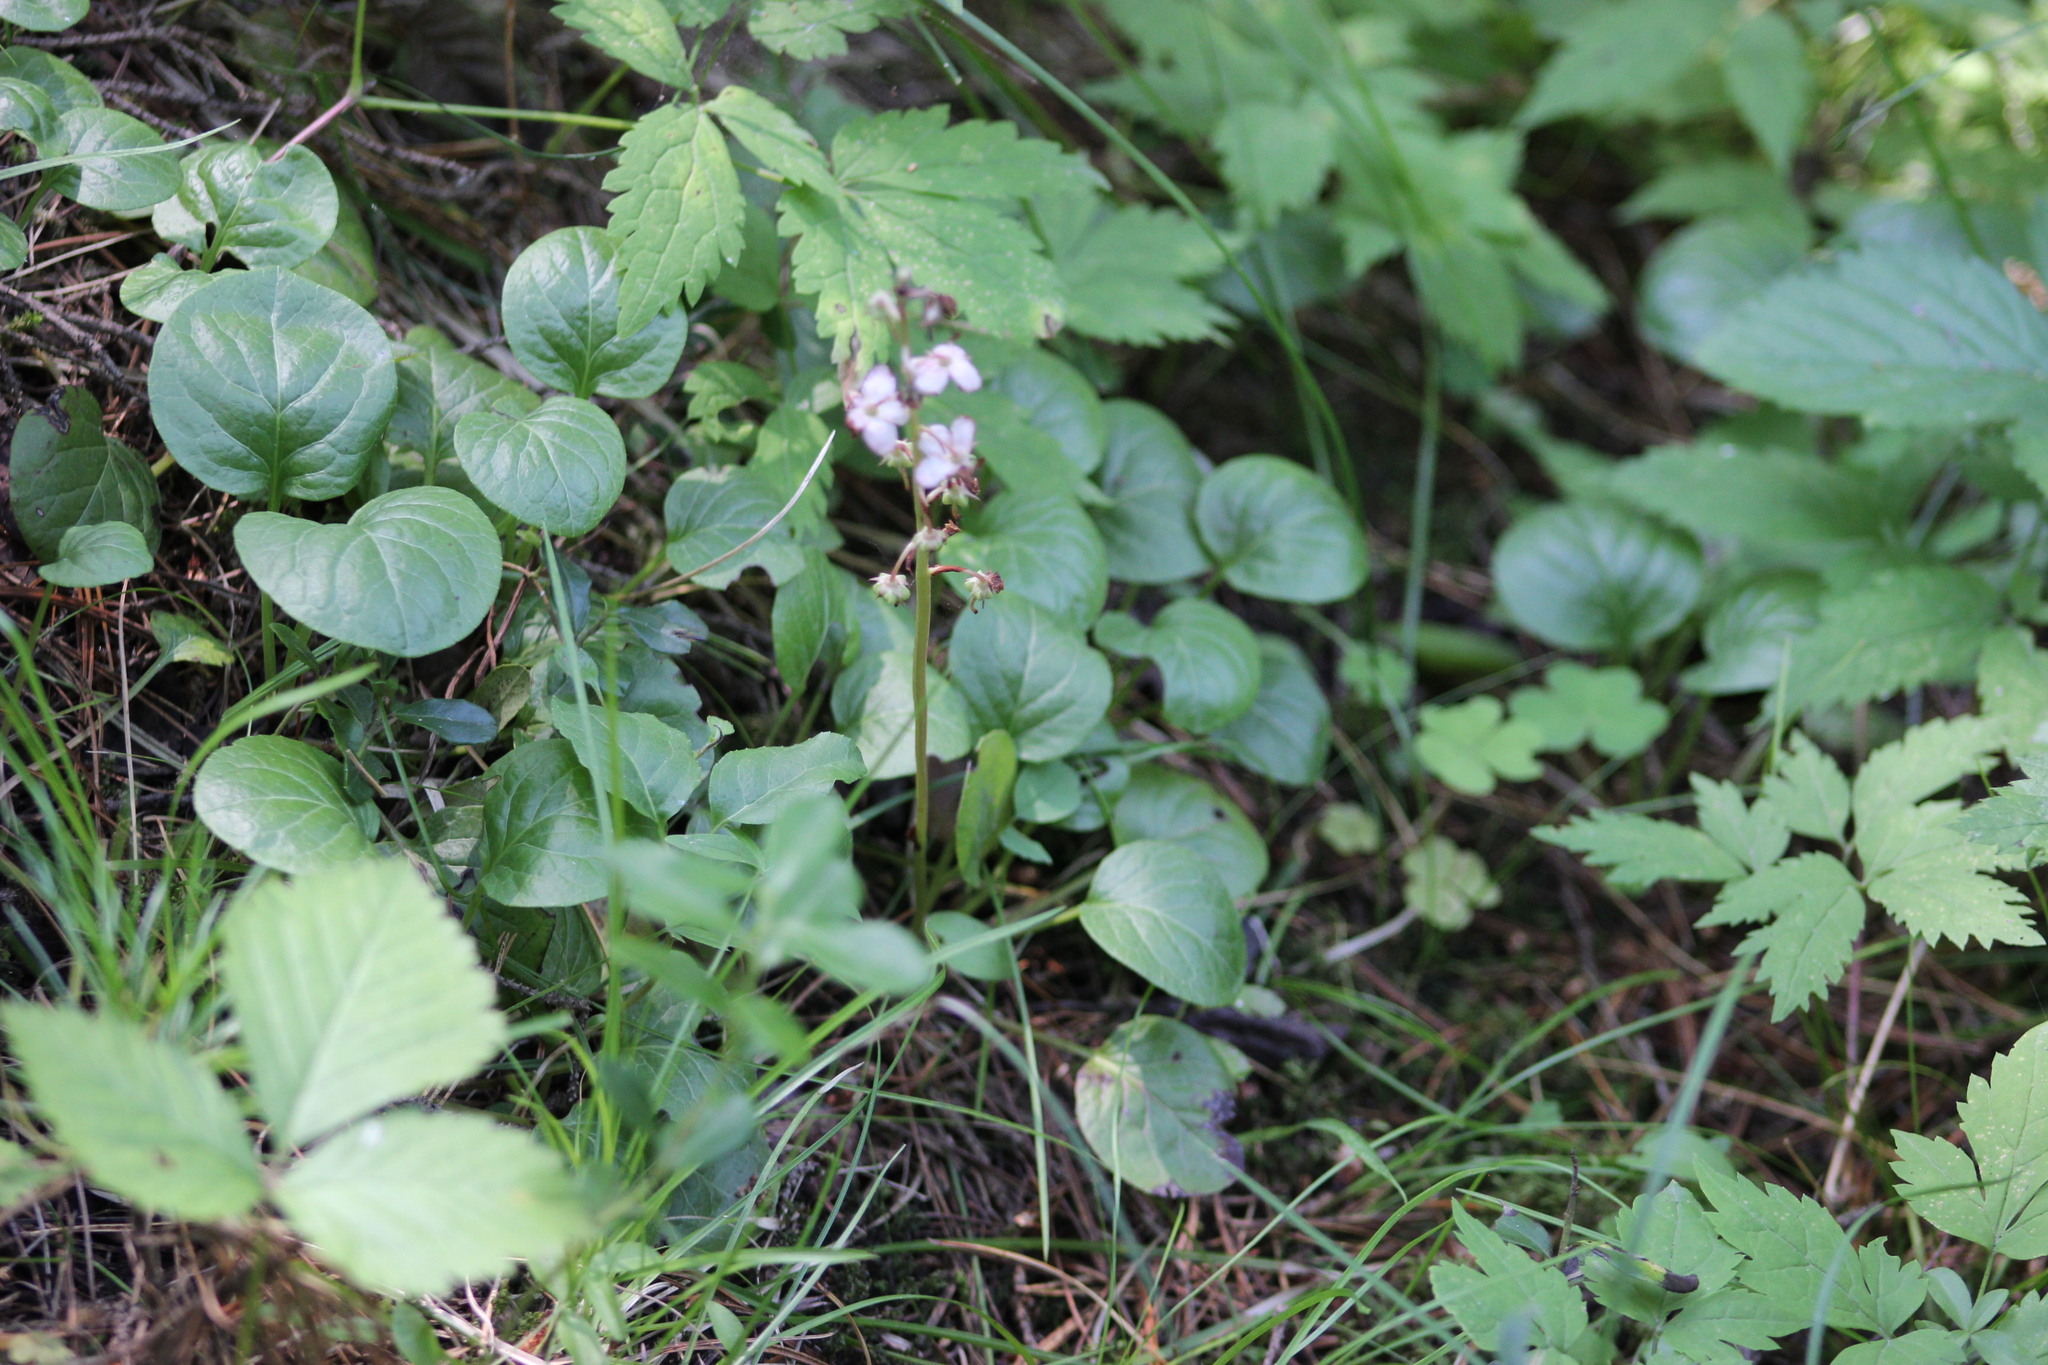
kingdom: Plantae
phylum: Tracheophyta
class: Magnoliopsida
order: Ericales
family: Ericaceae
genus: Pyrola
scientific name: Pyrola asarifolia
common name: Bog wintergreen
